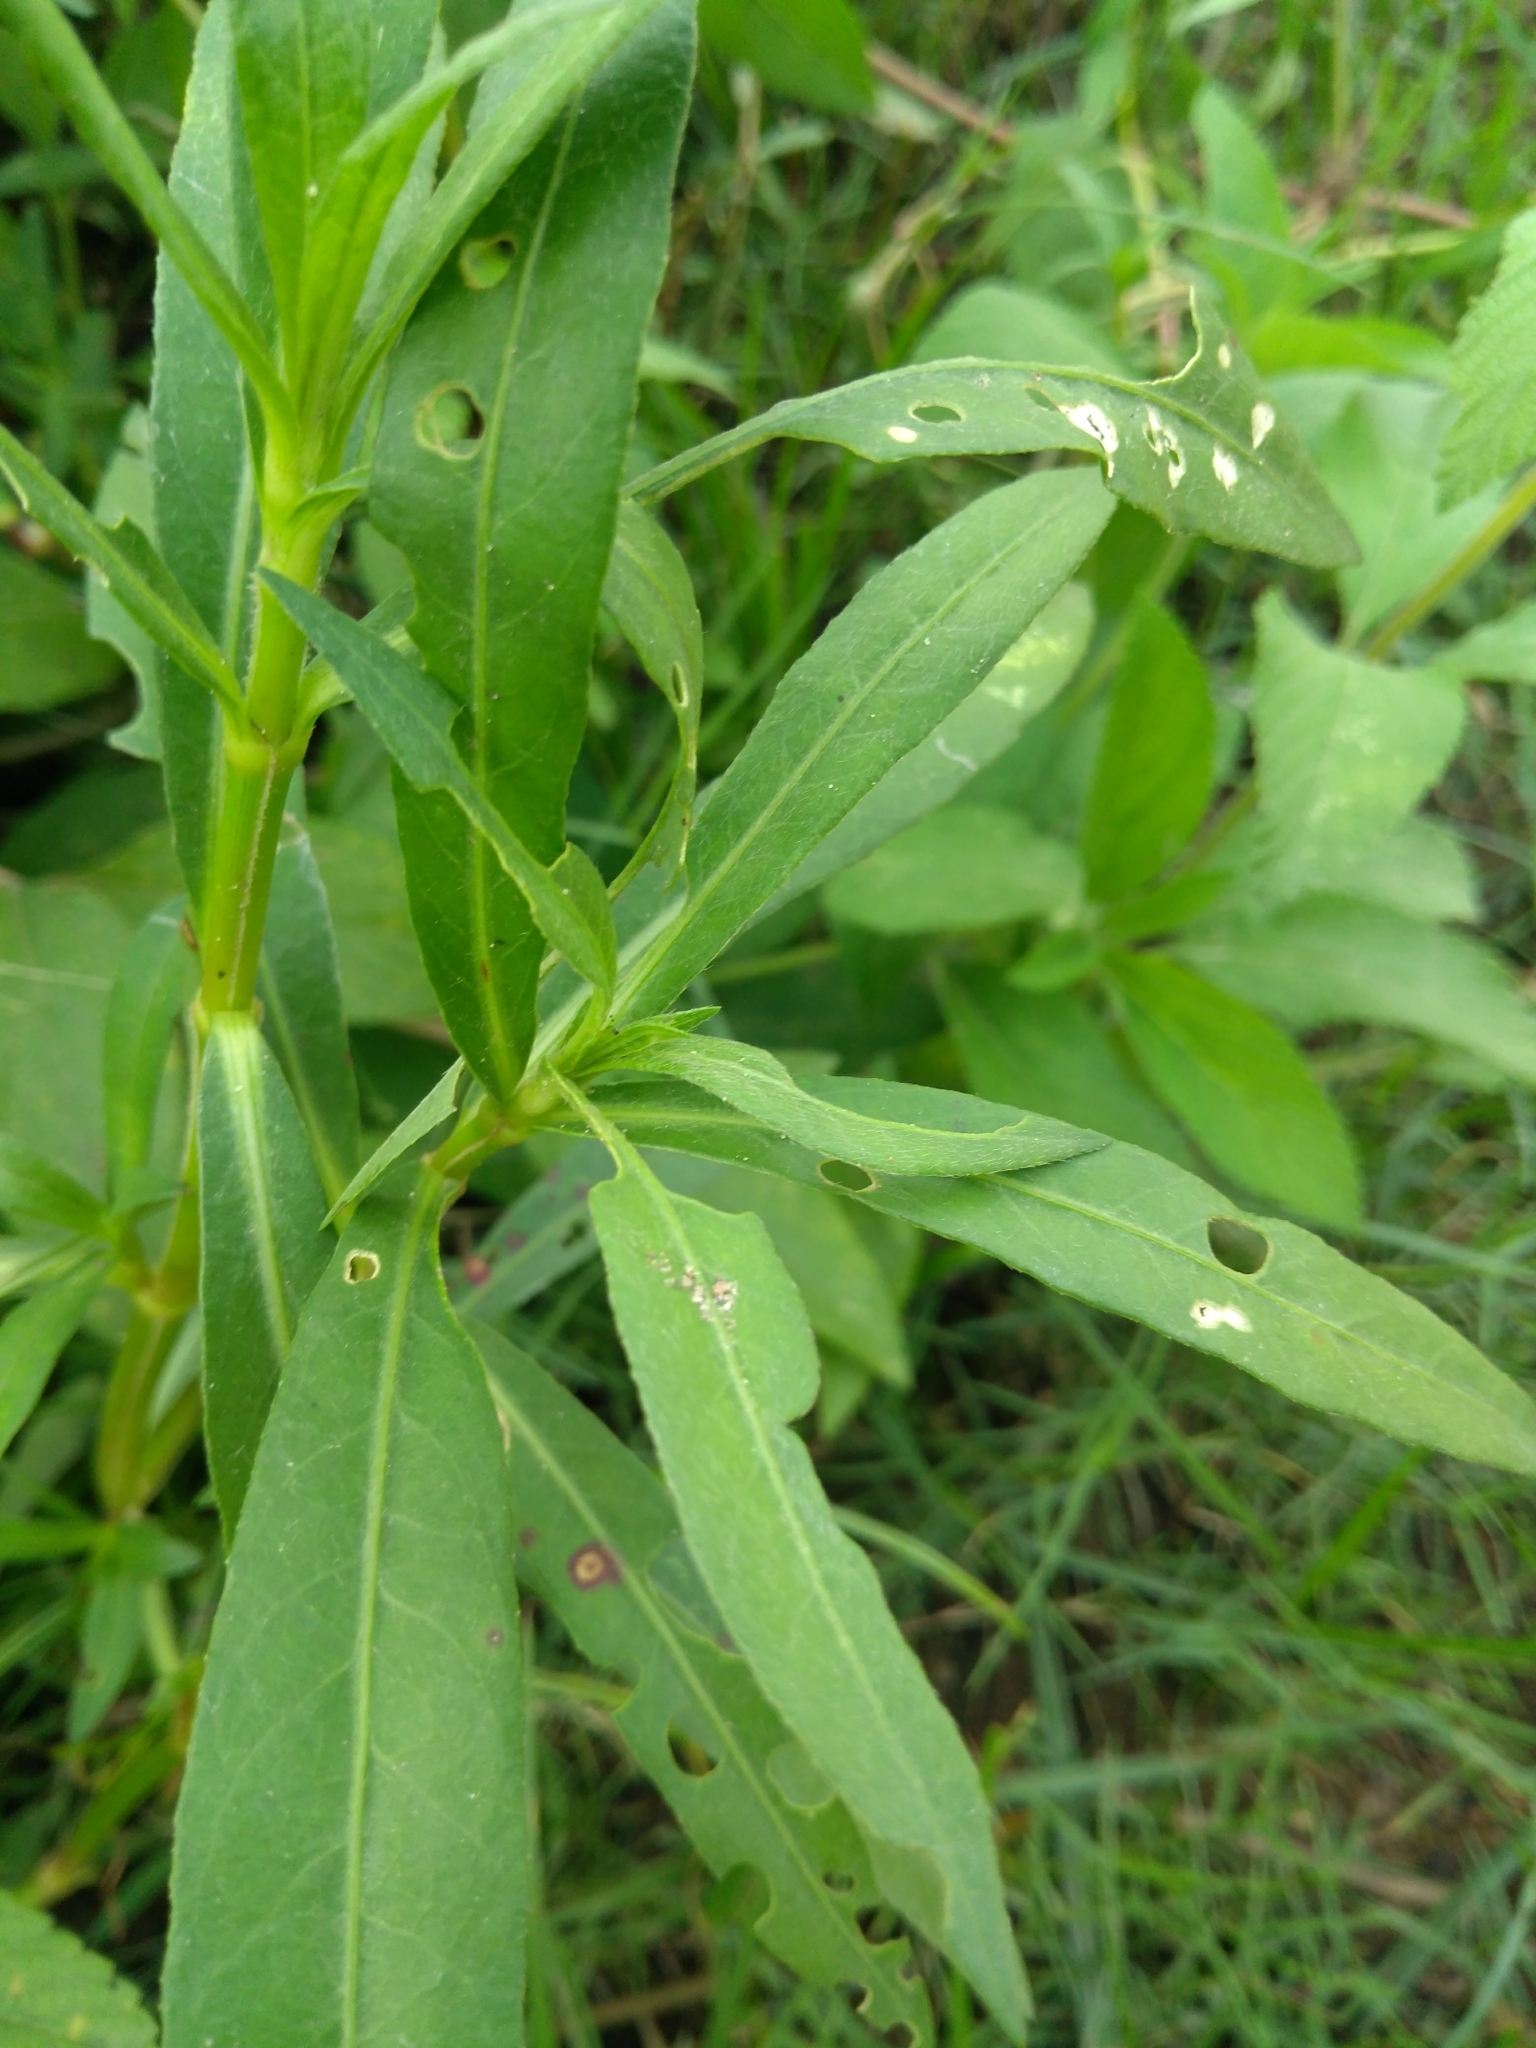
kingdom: Plantae
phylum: Tracheophyta
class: Magnoliopsida
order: Asterales
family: Asteraceae
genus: Eclipta
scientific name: Eclipta prostrata
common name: False daisy
